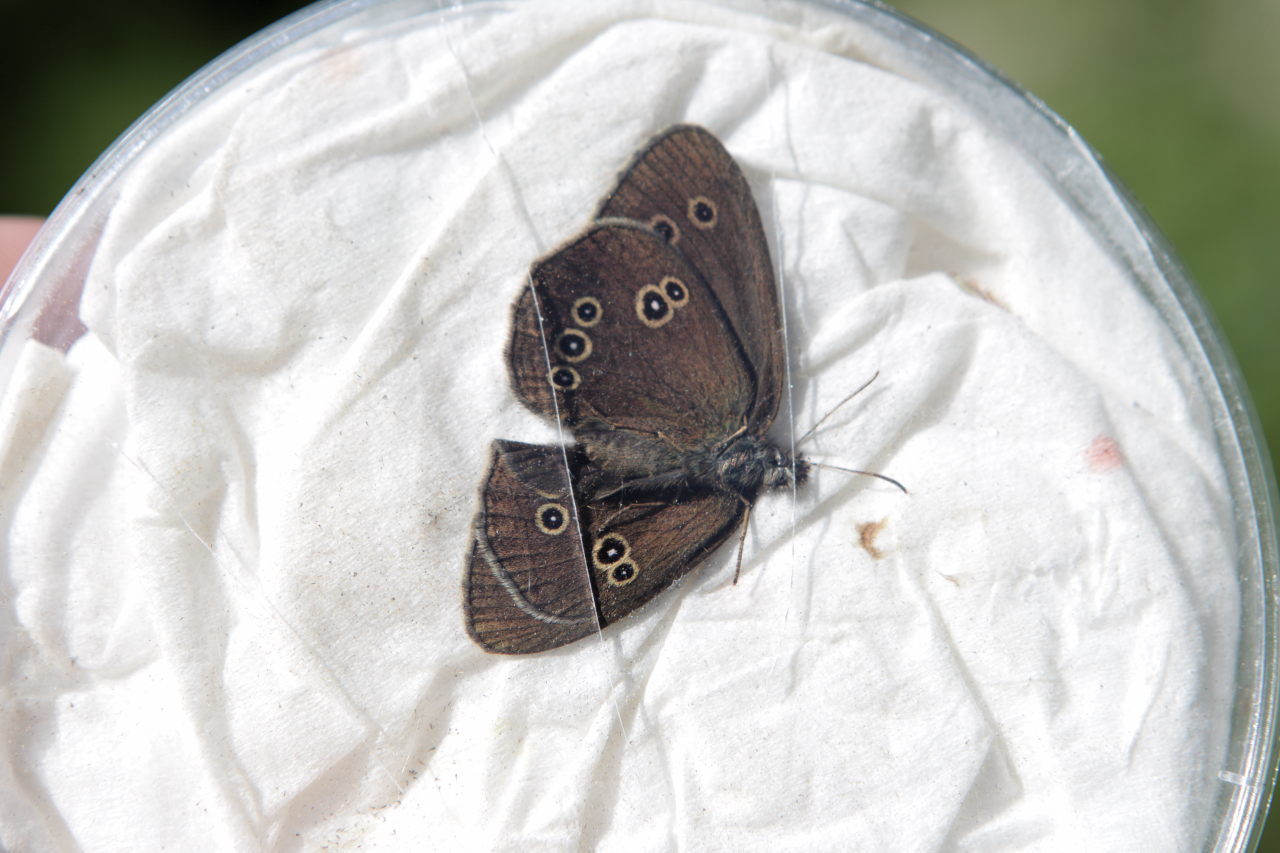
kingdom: Animalia
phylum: Arthropoda
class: Insecta
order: Lepidoptera
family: Nymphalidae
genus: Aphantopus
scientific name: Aphantopus hyperantus
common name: Ringlet
